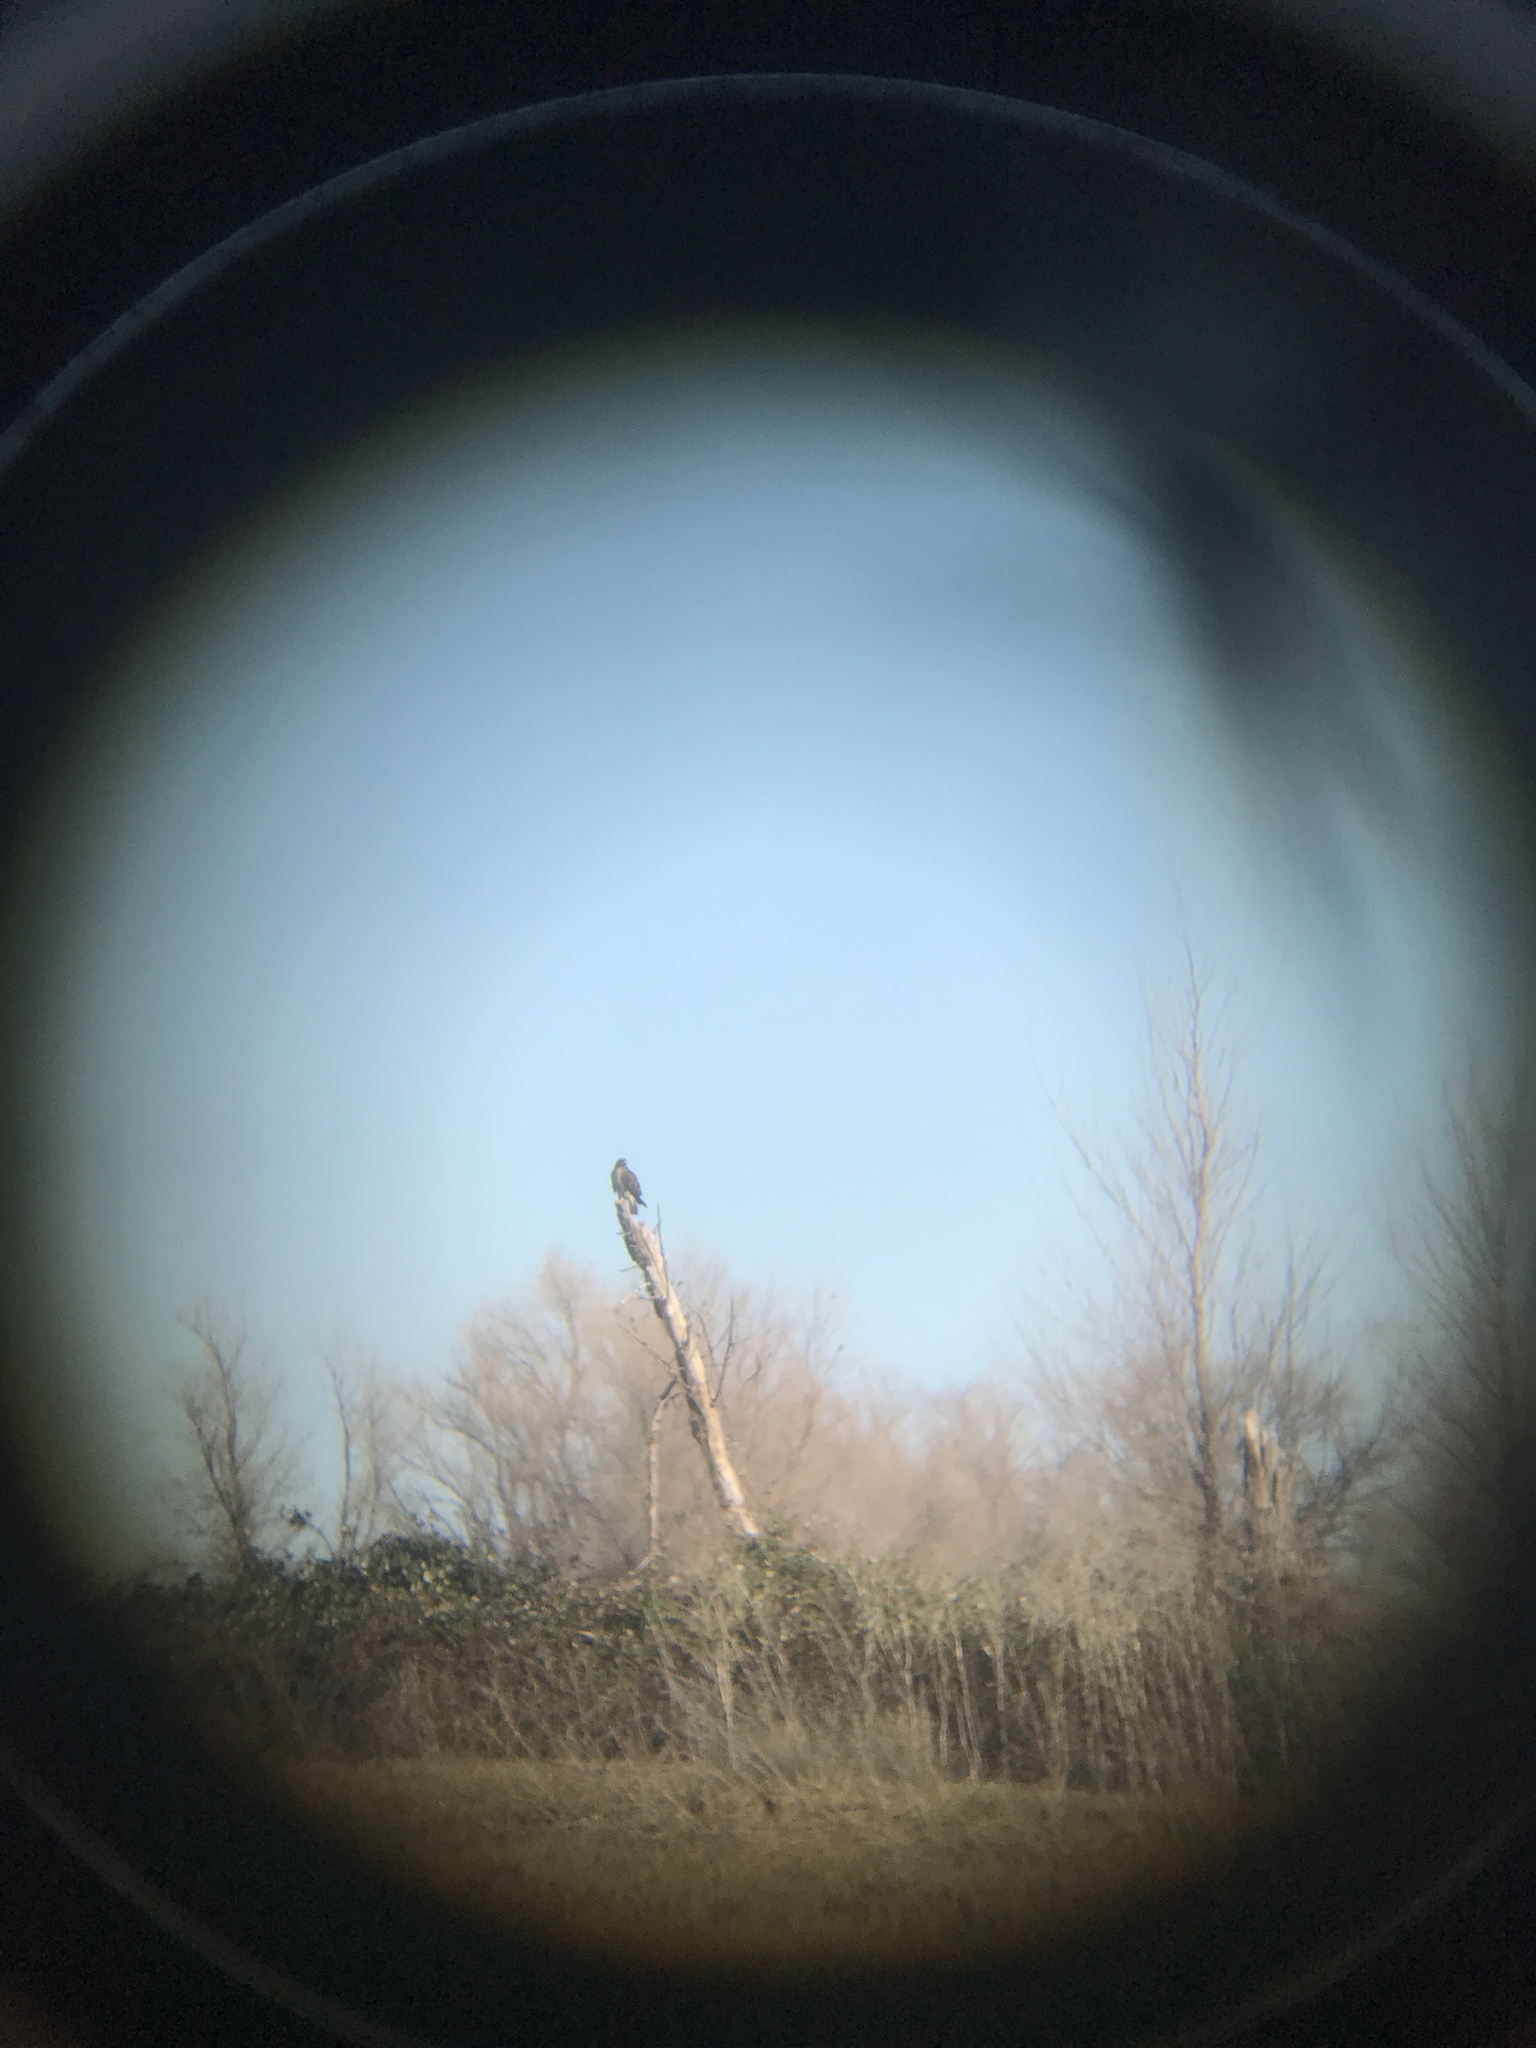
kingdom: Animalia
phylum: Chordata
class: Aves
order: Accipitriformes
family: Accipitridae
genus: Buteo
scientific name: Buteo jamaicensis
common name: Red-tailed hawk
